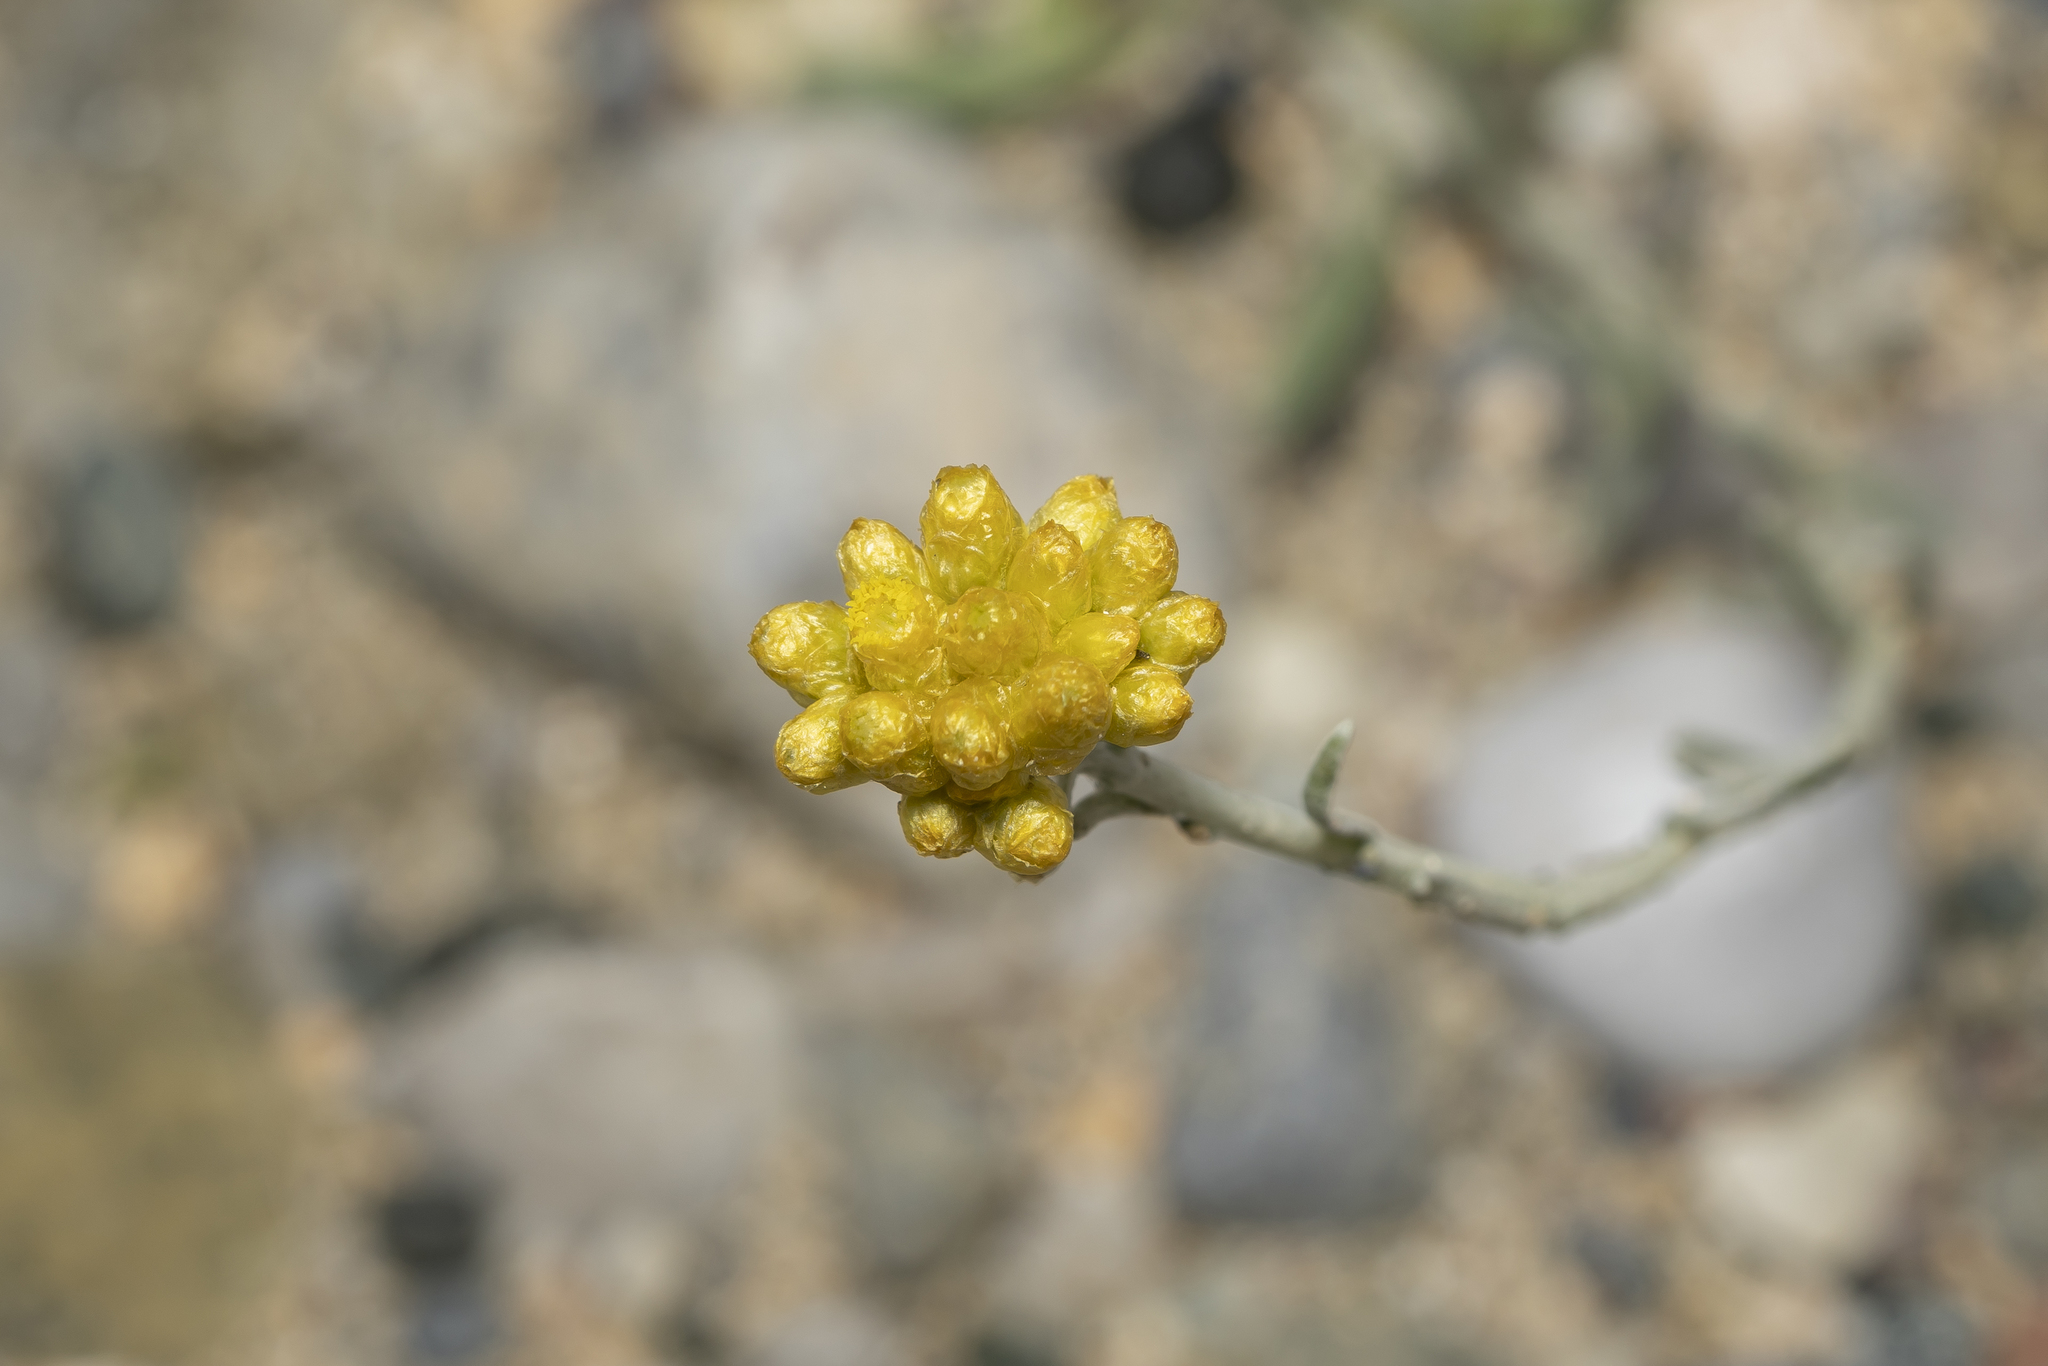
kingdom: Plantae
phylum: Tracheophyta
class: Magnoliopsida
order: Asterales
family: Asteraceae
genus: Helichrysum
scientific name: Helichrysum stoechas
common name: Goldilocks
